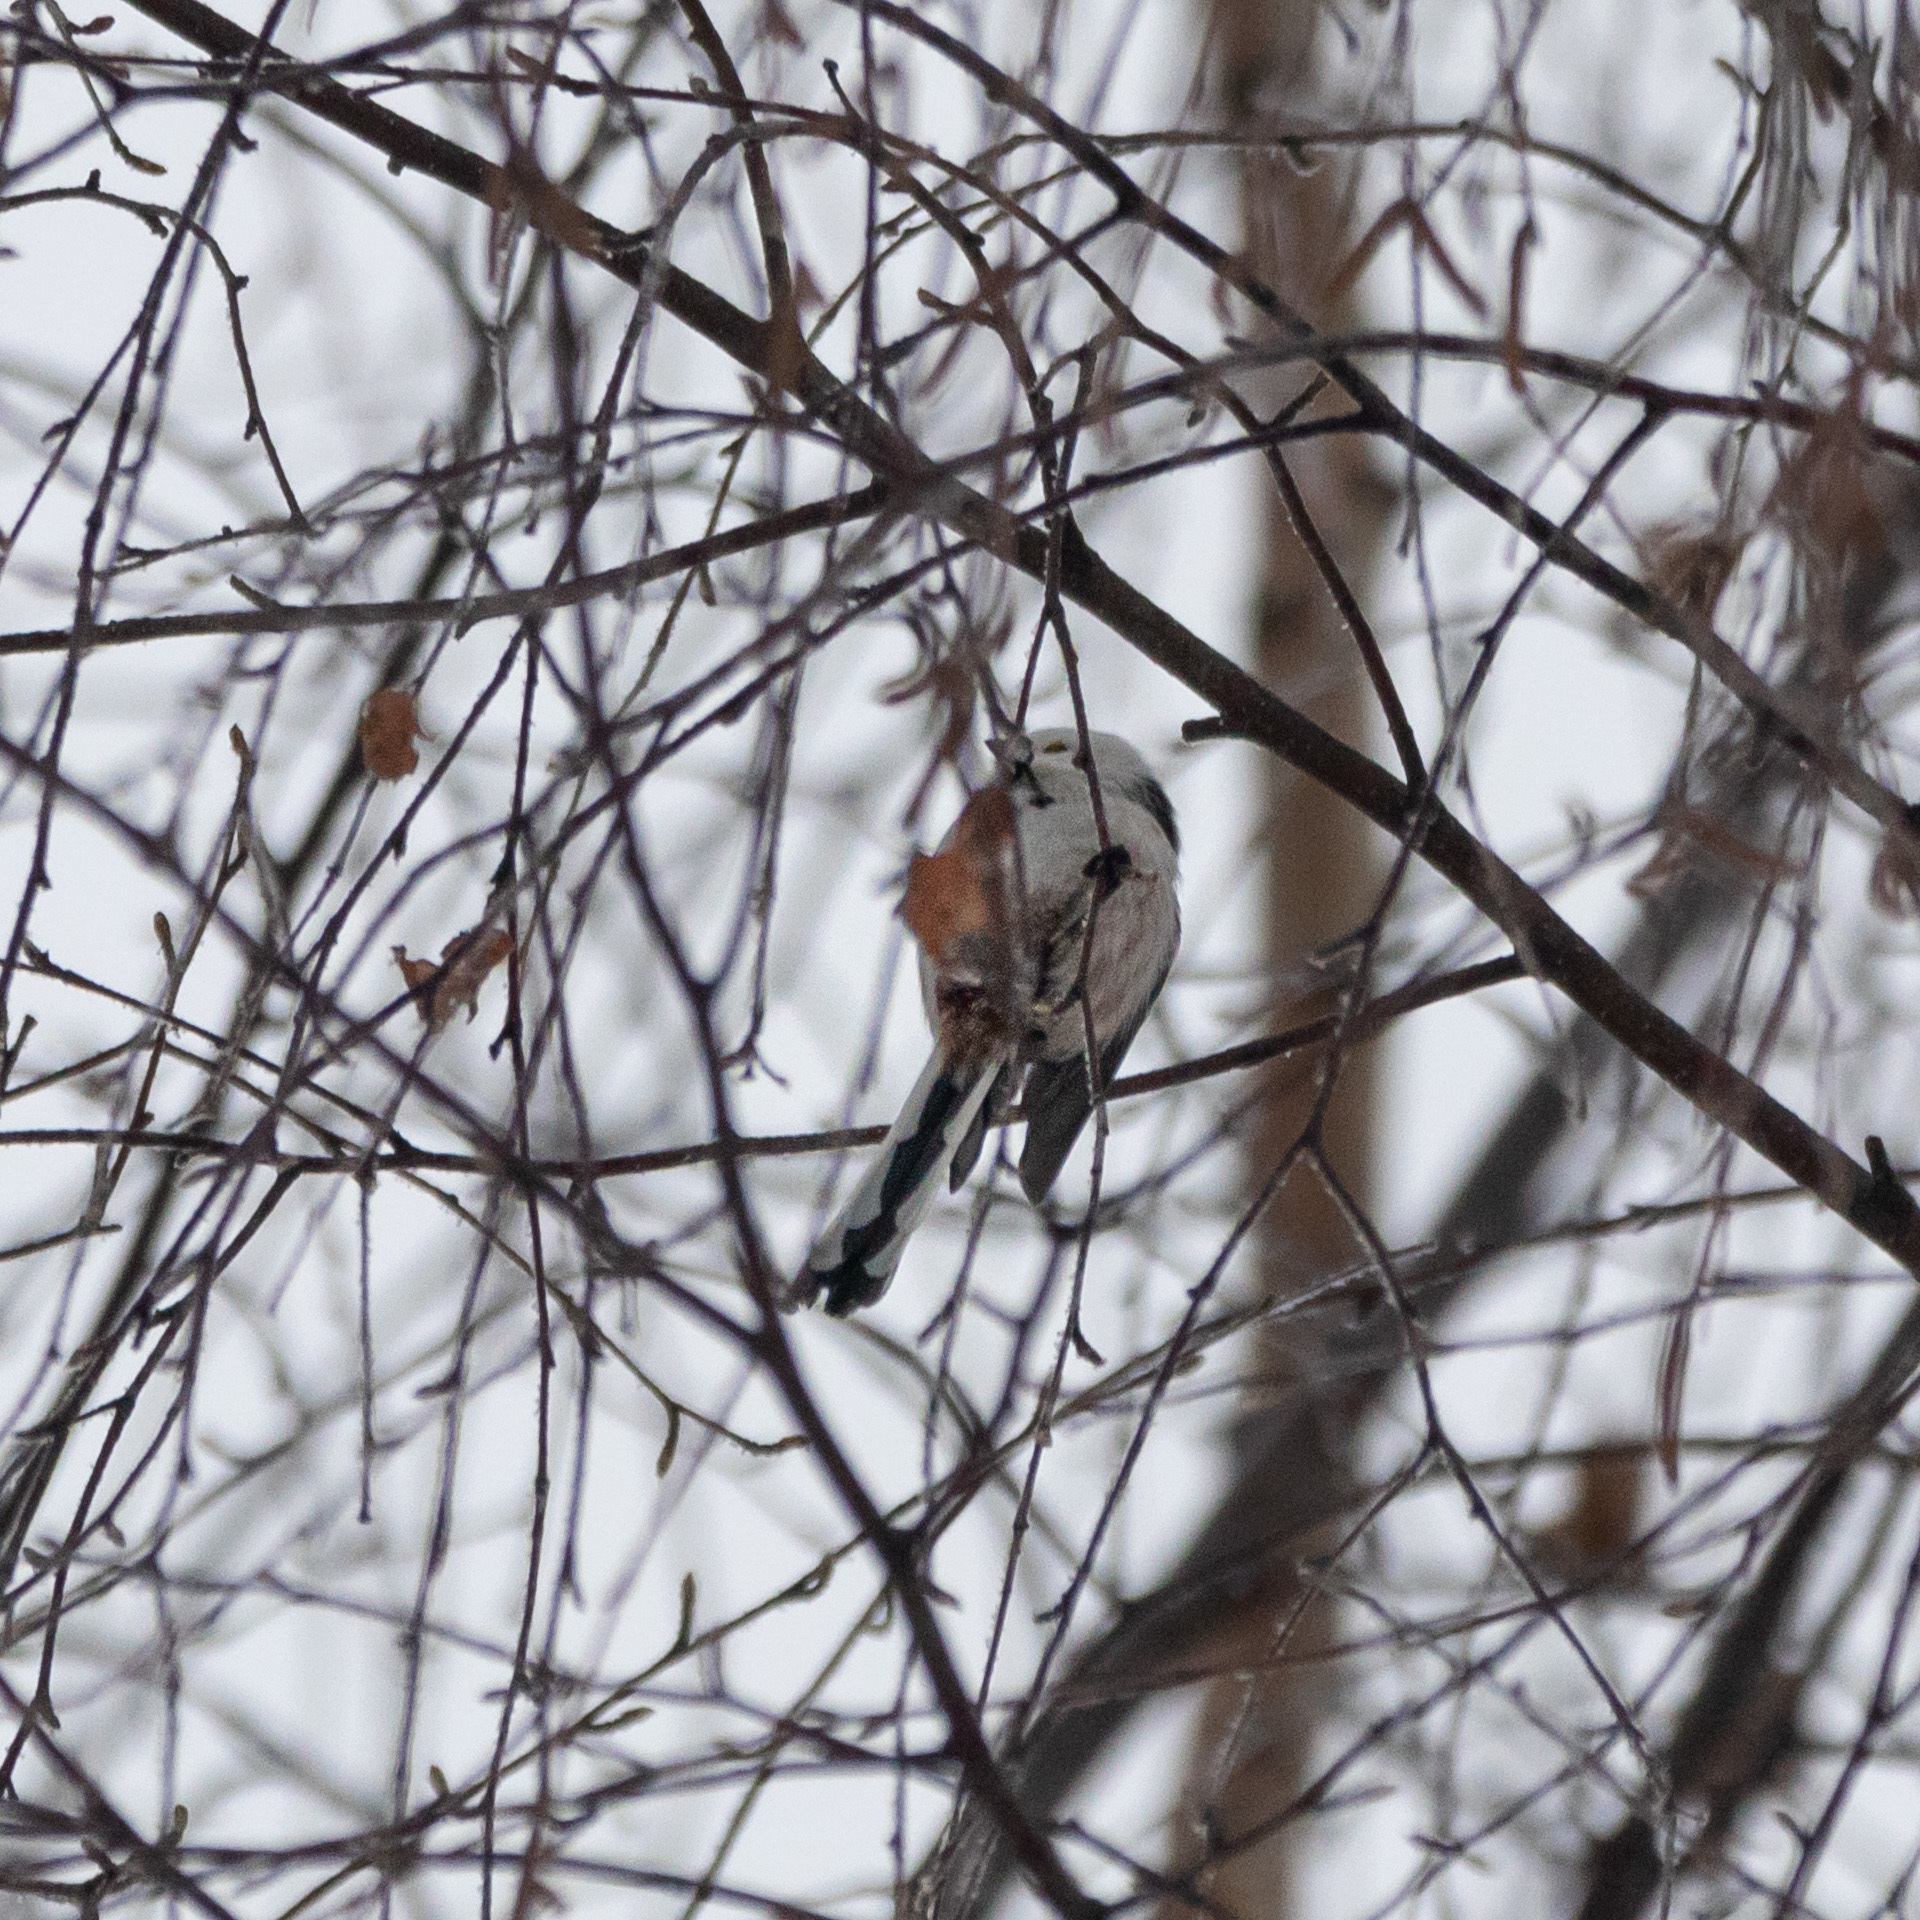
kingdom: Animalia
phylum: Chordata
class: Aves
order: Passeriformes
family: Aegithalidae
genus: Aegithalos
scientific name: Aegithalos caudatus
